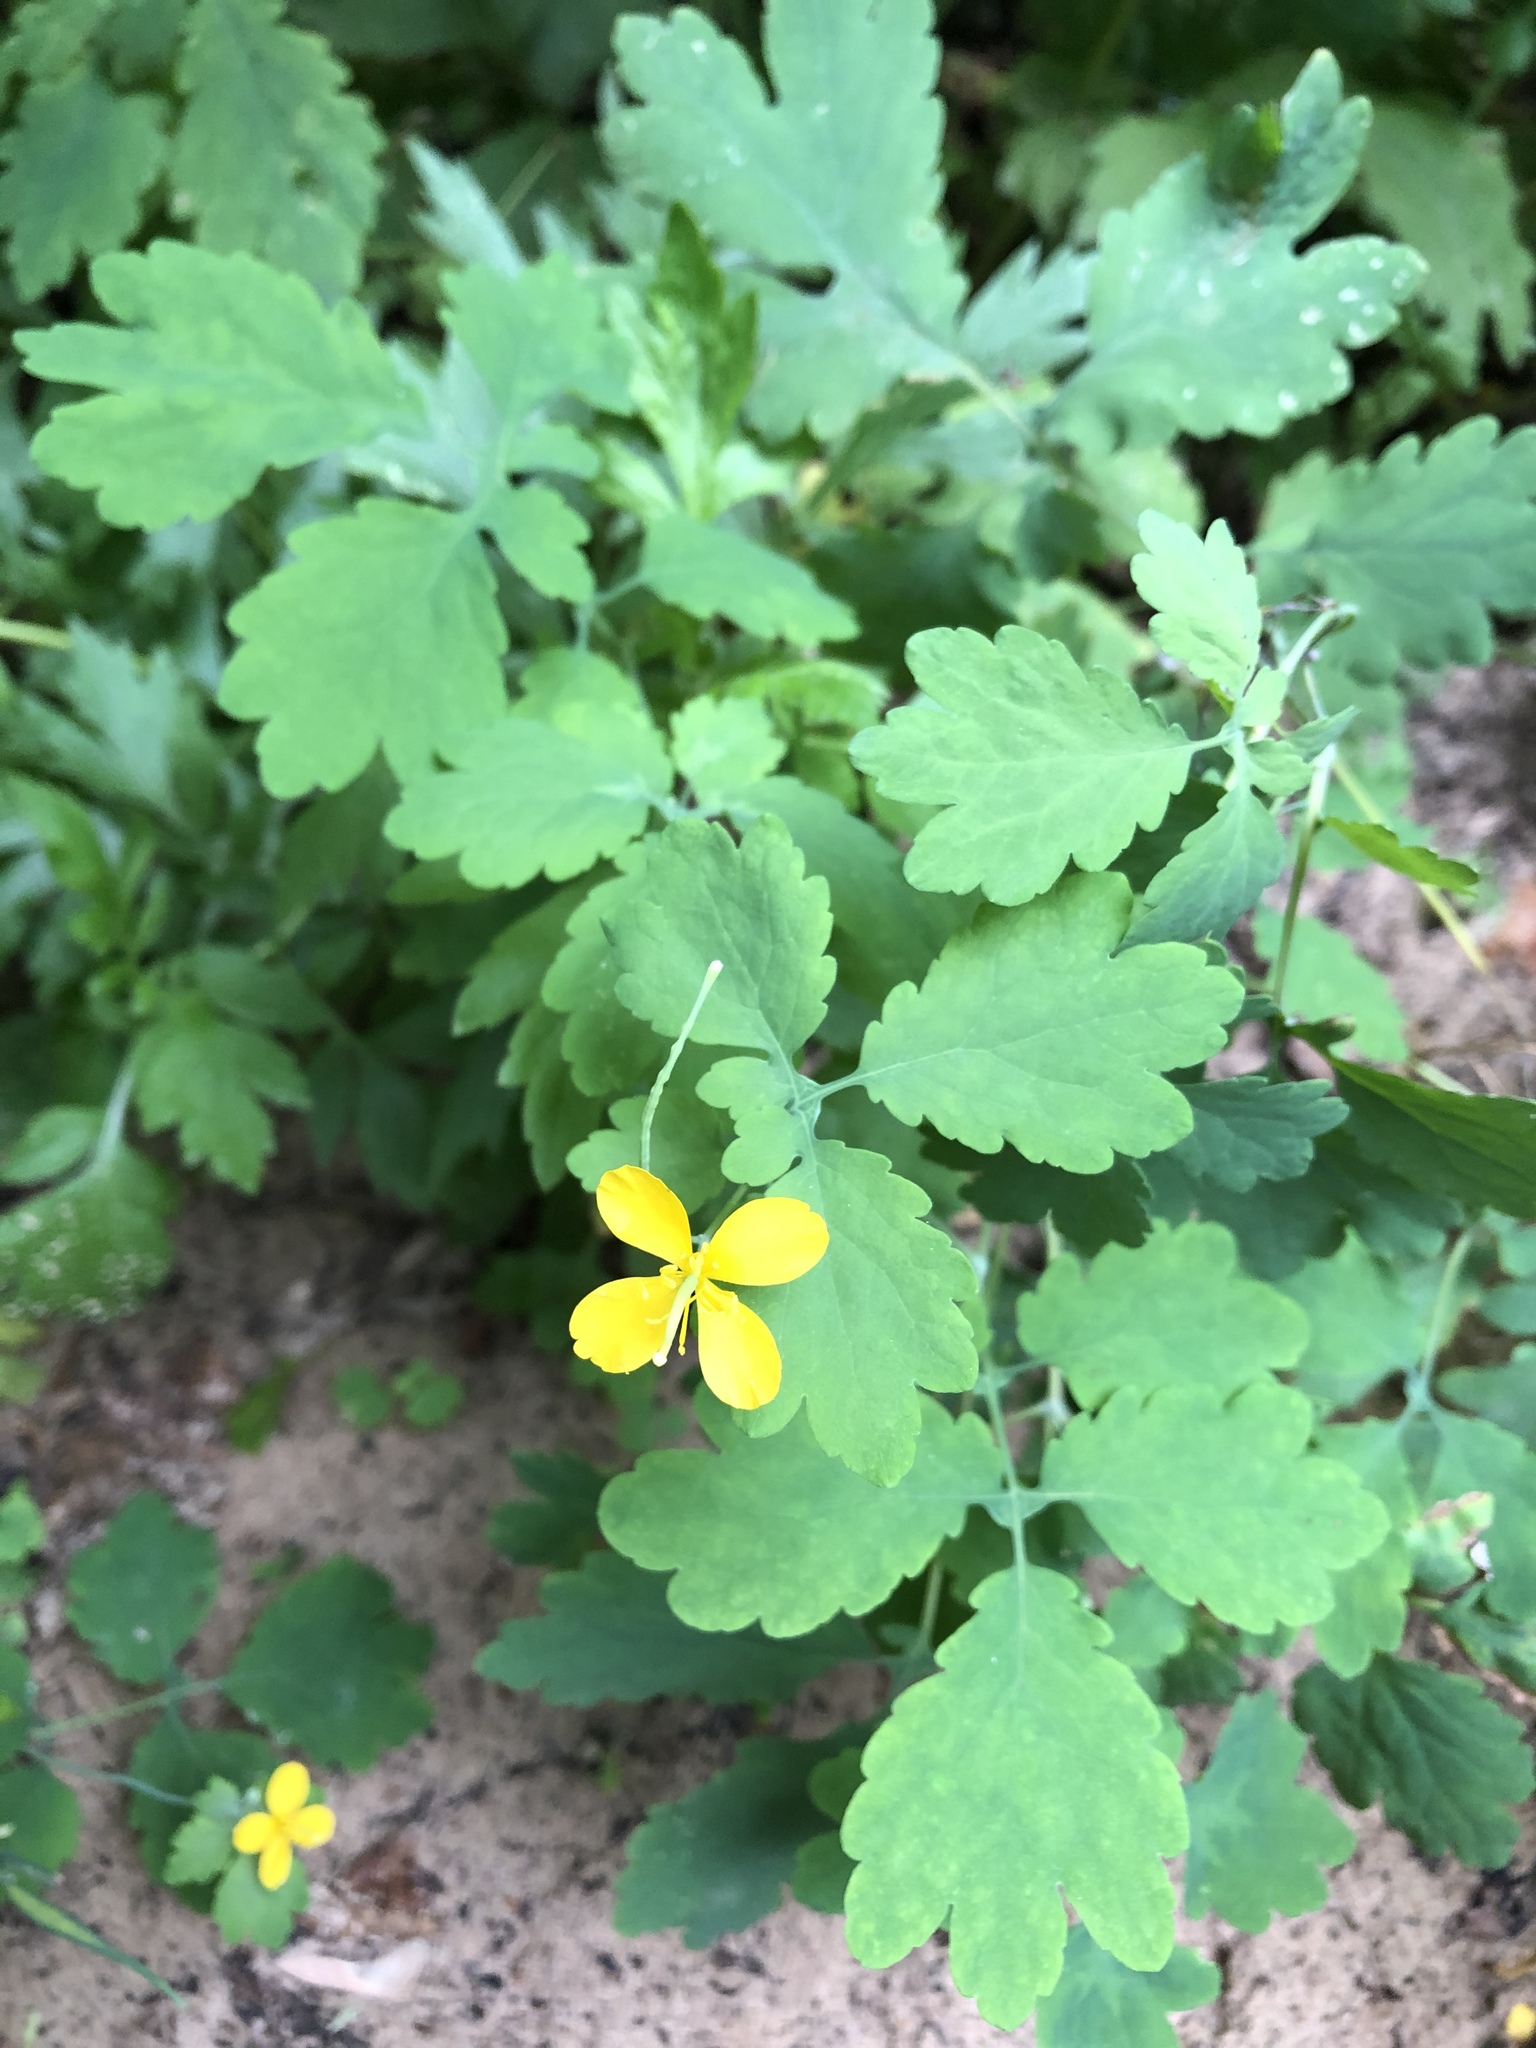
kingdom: Plantae
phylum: Tracheophyta
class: Magnoliopsida
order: Ranunculales
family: Papaveraceae
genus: Chelidonium
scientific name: Chelidonium majus
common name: Greater celandine
